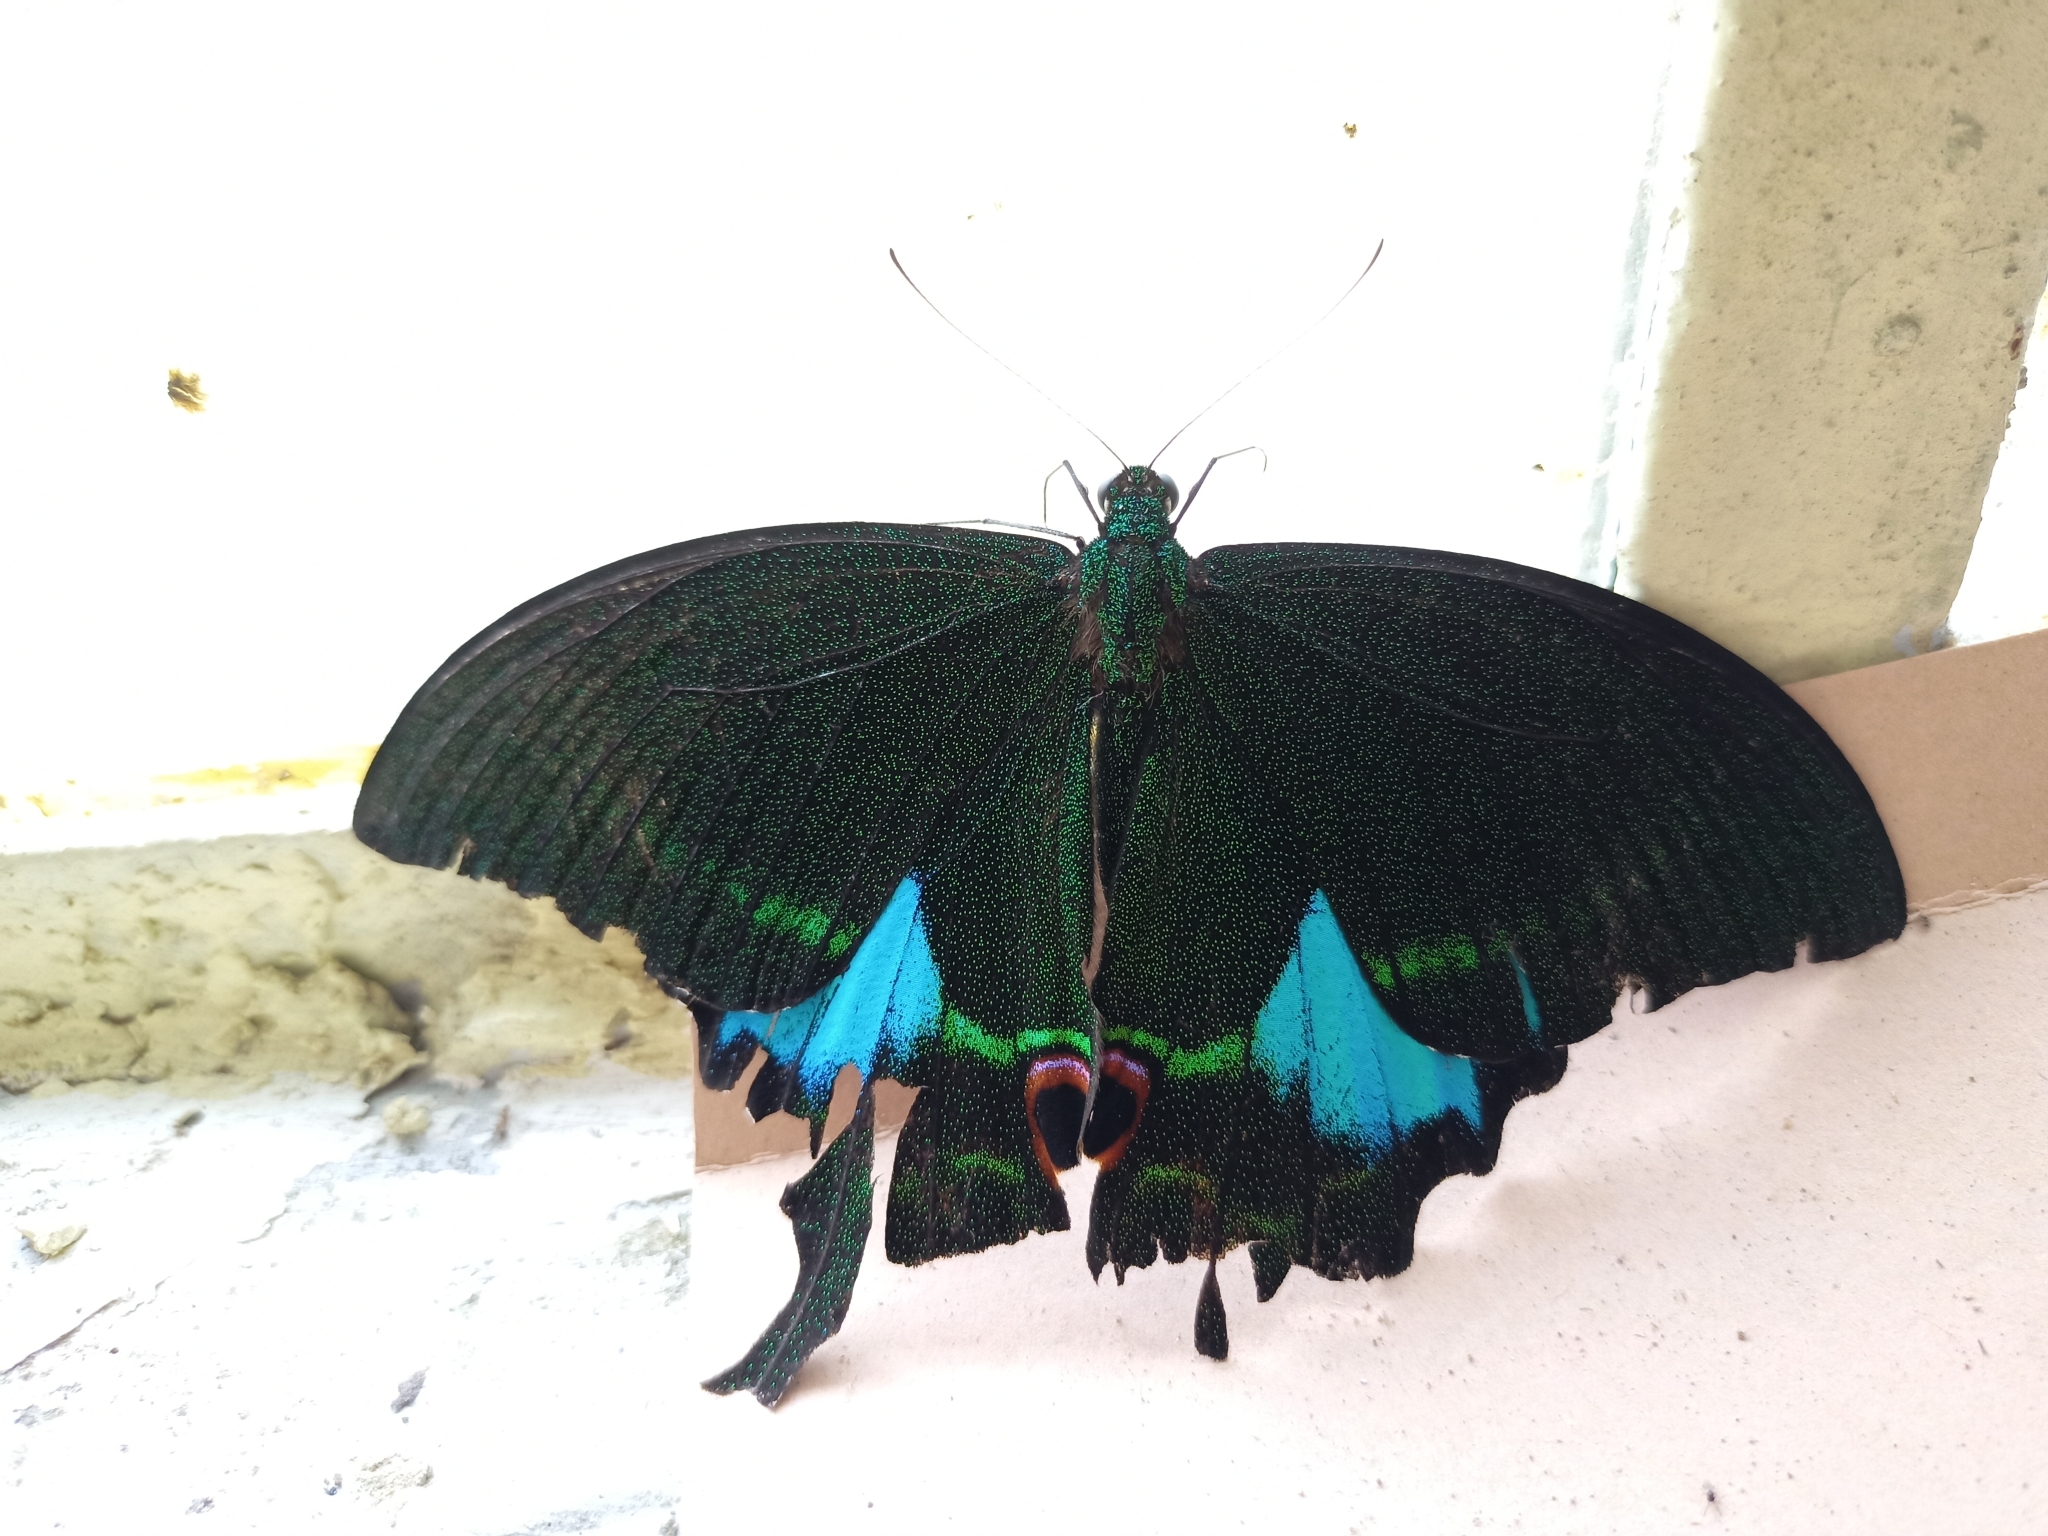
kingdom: Animalia
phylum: Arthropoda
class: Insecta
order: Lepidoptera
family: Papilionidae
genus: Papilio
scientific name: Papilio paris
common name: Paris peacock
